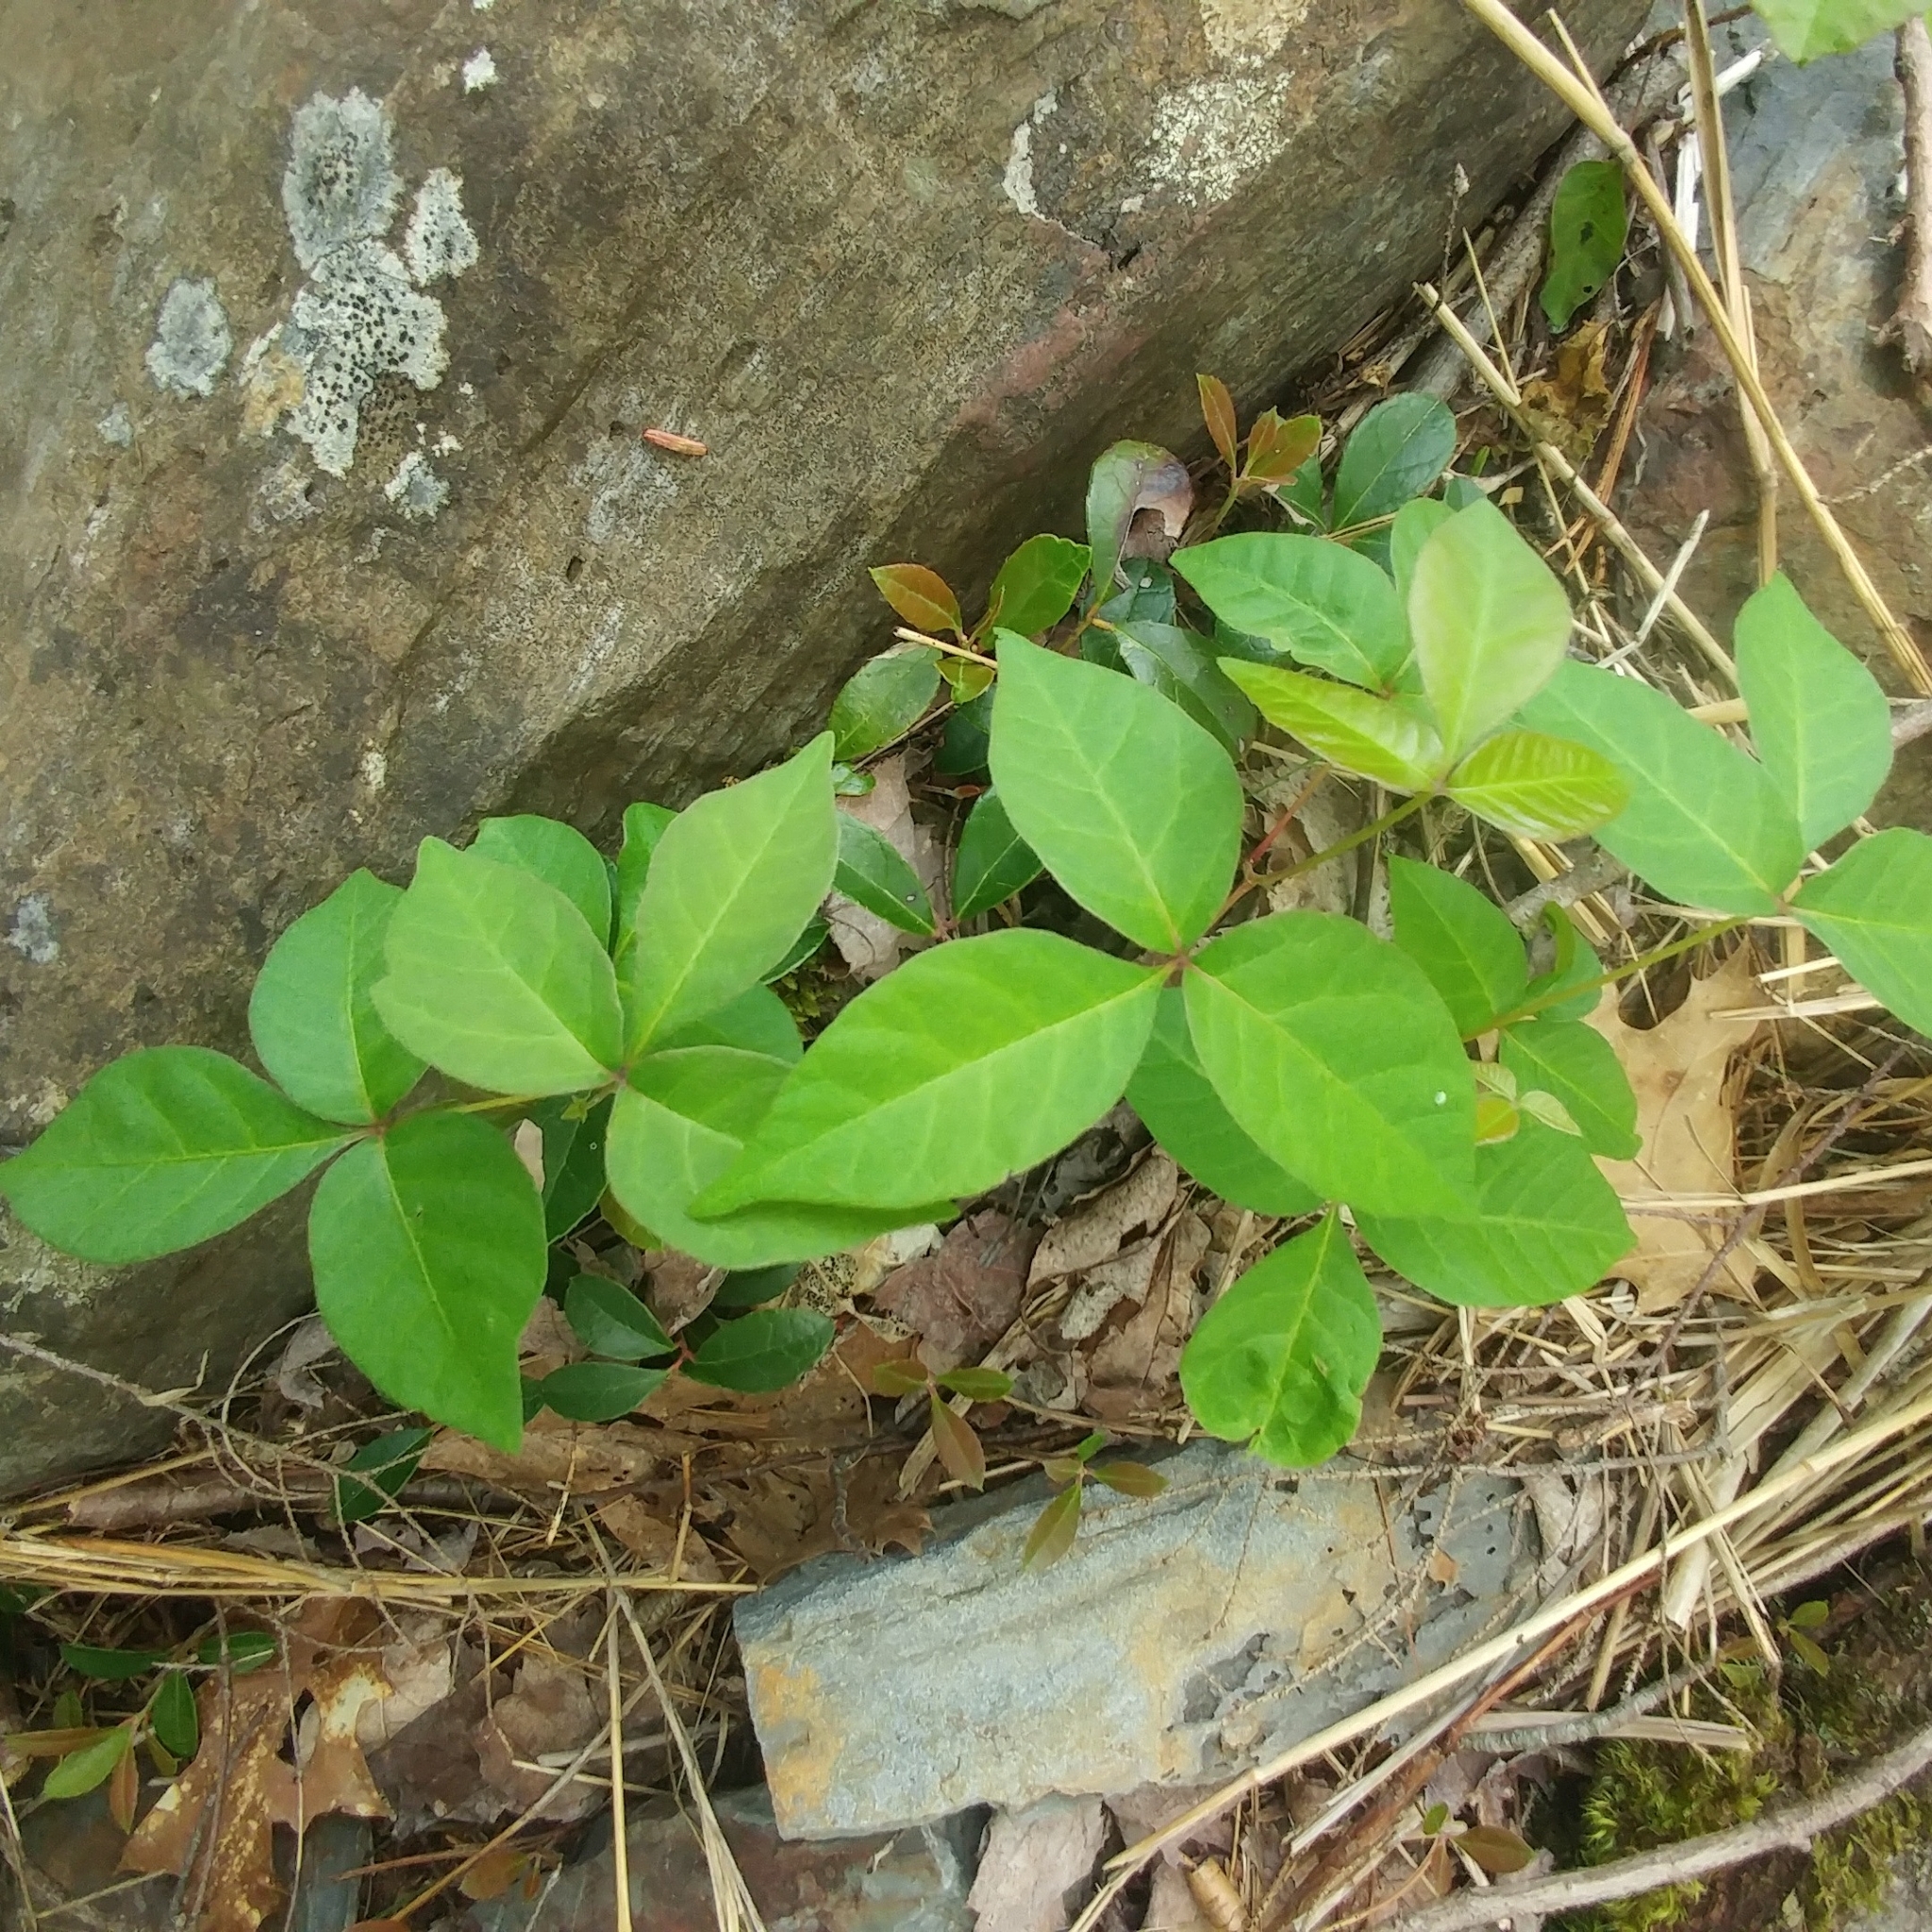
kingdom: Plantae
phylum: Tracheophyta
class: Magnoliopsida
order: Sapindales
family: Anacardiaceae
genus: Toxicodendron
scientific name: Toxicodendron radicans
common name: Poison ivy
